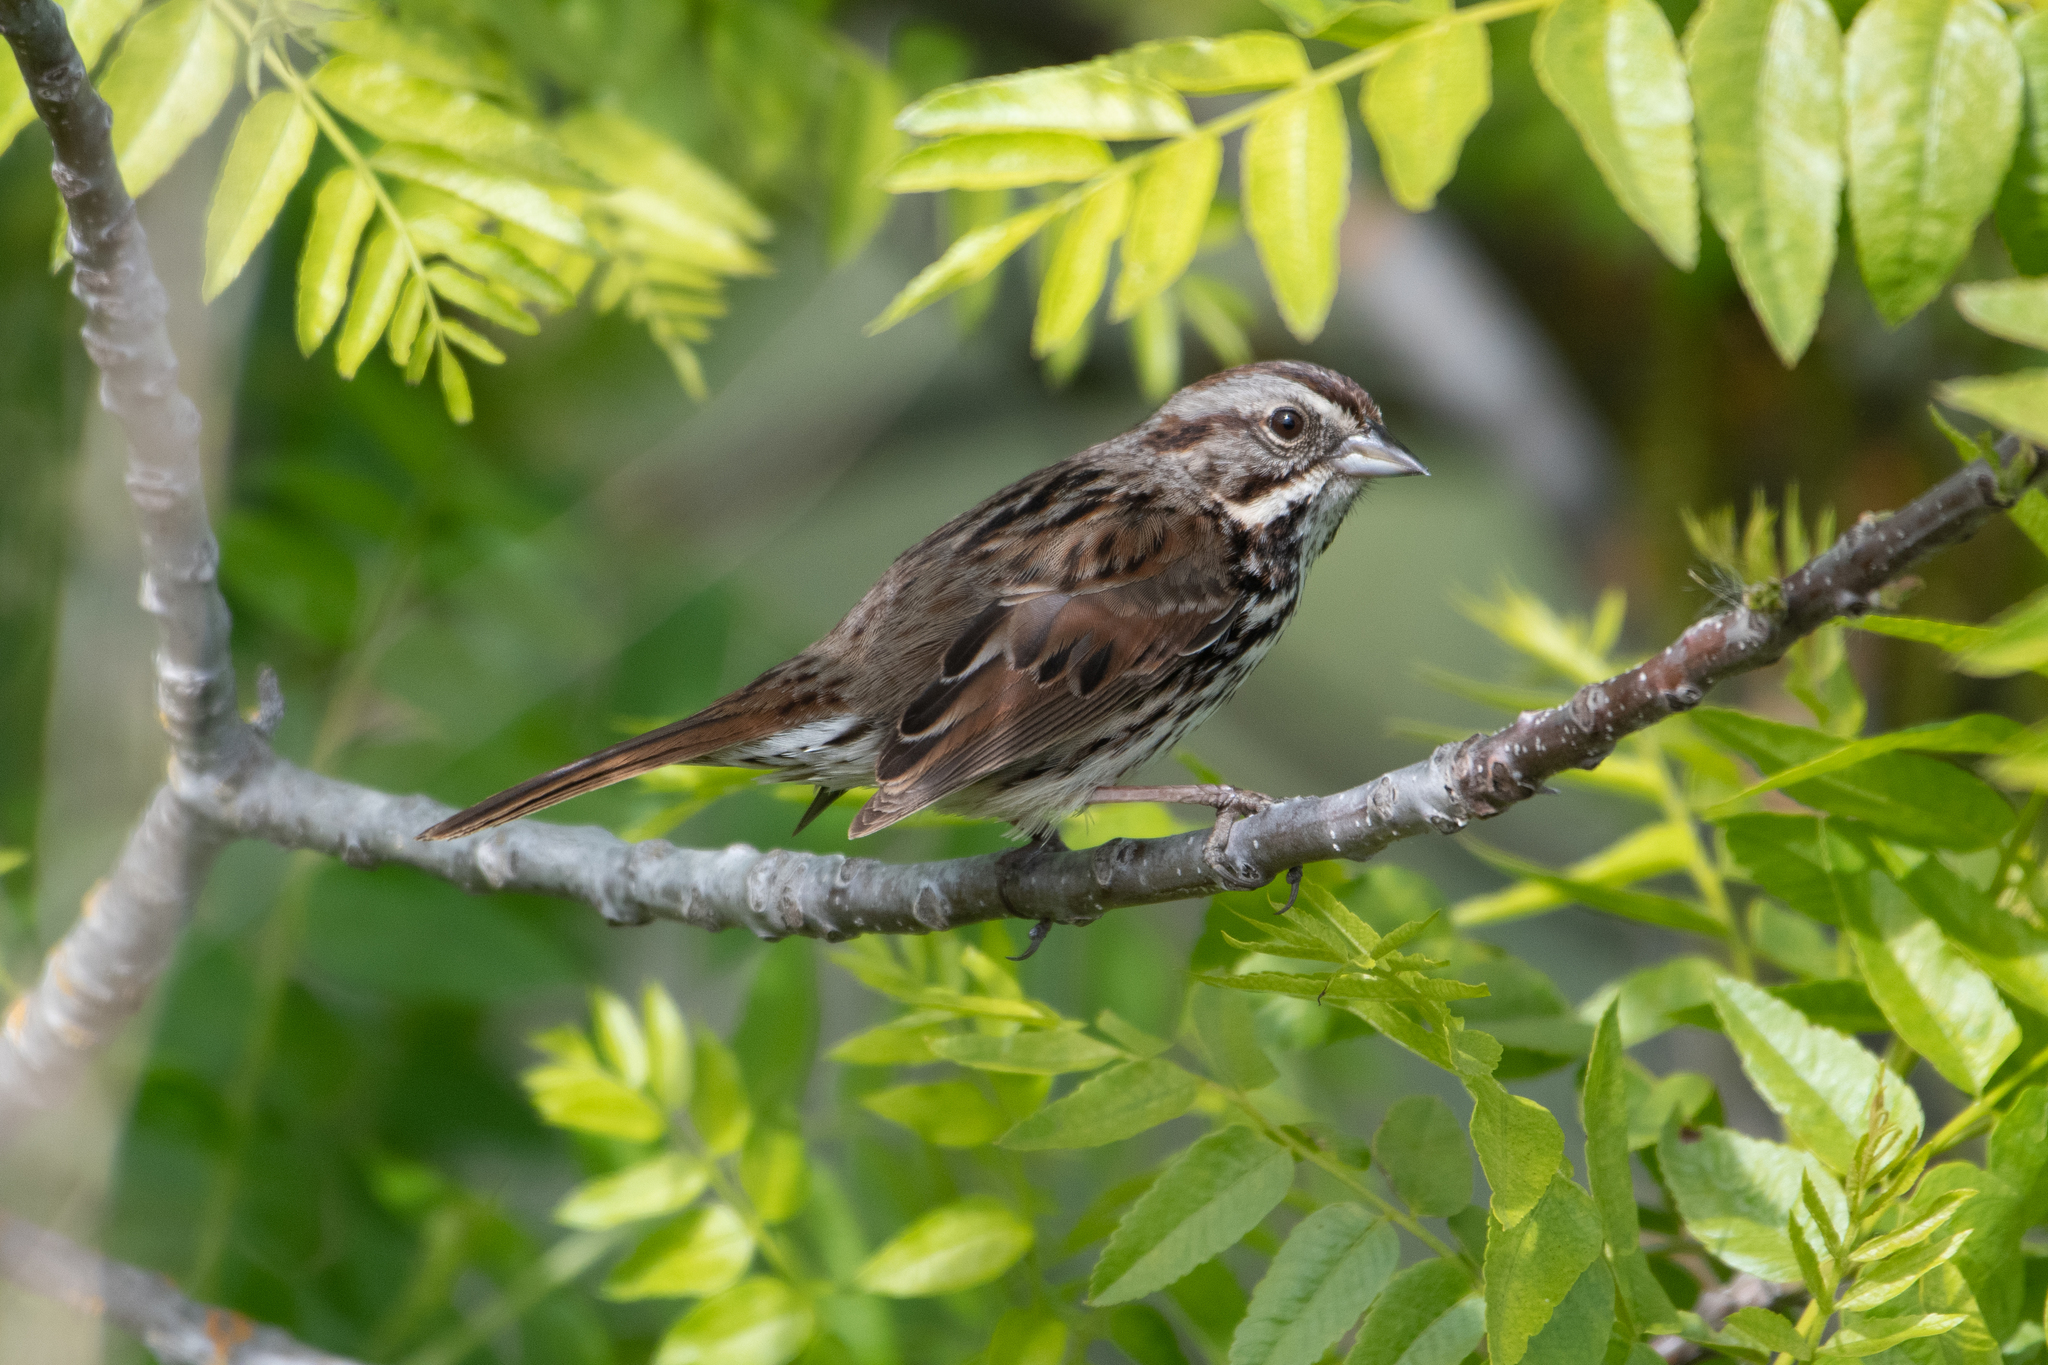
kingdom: Animalia
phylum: Chordata
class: Aves
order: Passeriformes
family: Passerellidae
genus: Melospiza
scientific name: Melospiza melodia
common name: Song sparrow
